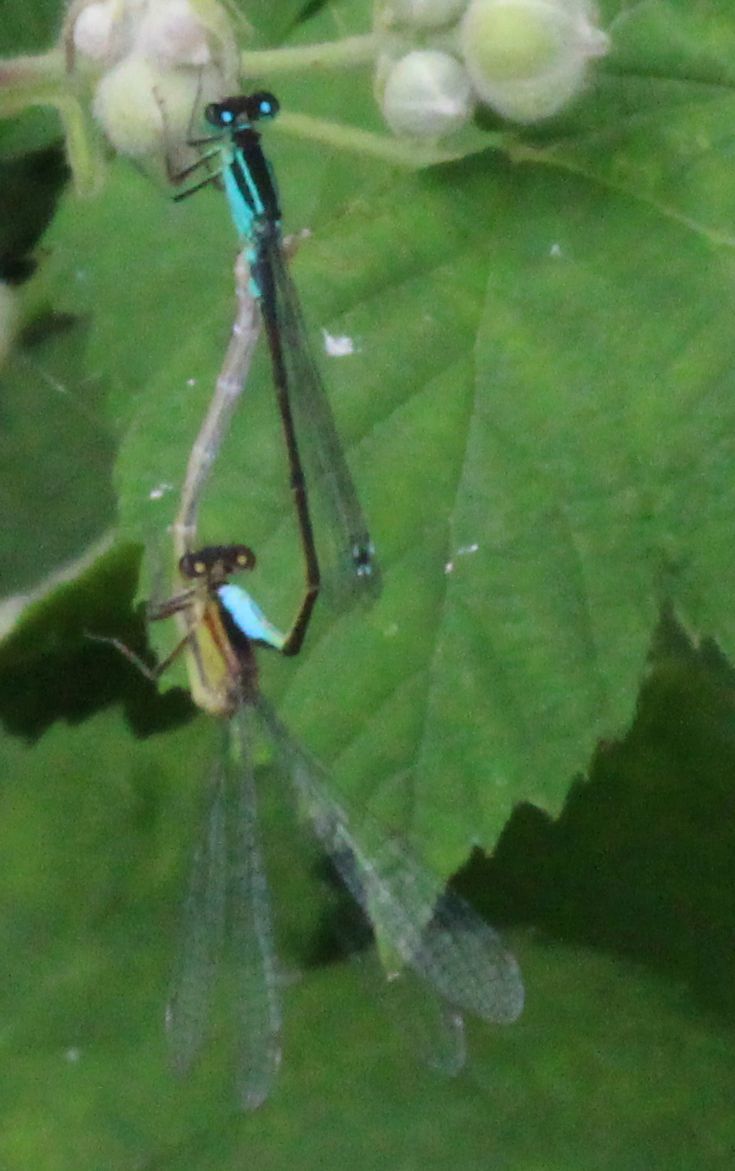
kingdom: Animalia
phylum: Arthropoda
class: Insecta
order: Odonata
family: Coenagrionidae
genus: Ischnura
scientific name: Ischnura elegans
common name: Blue-tailed damselfly
